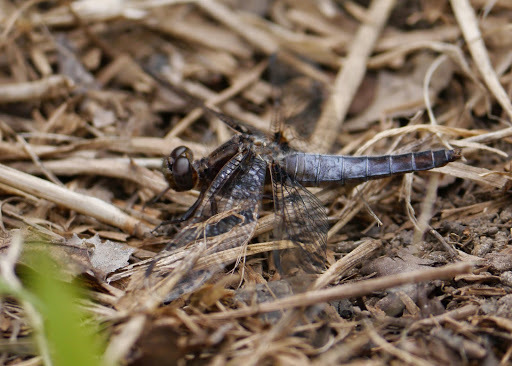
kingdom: Animalia
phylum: Arthropoda
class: Insecta
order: Odonata
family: Libellulidae
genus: Ladona
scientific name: Ladona exusta
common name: Libellule embrasée
